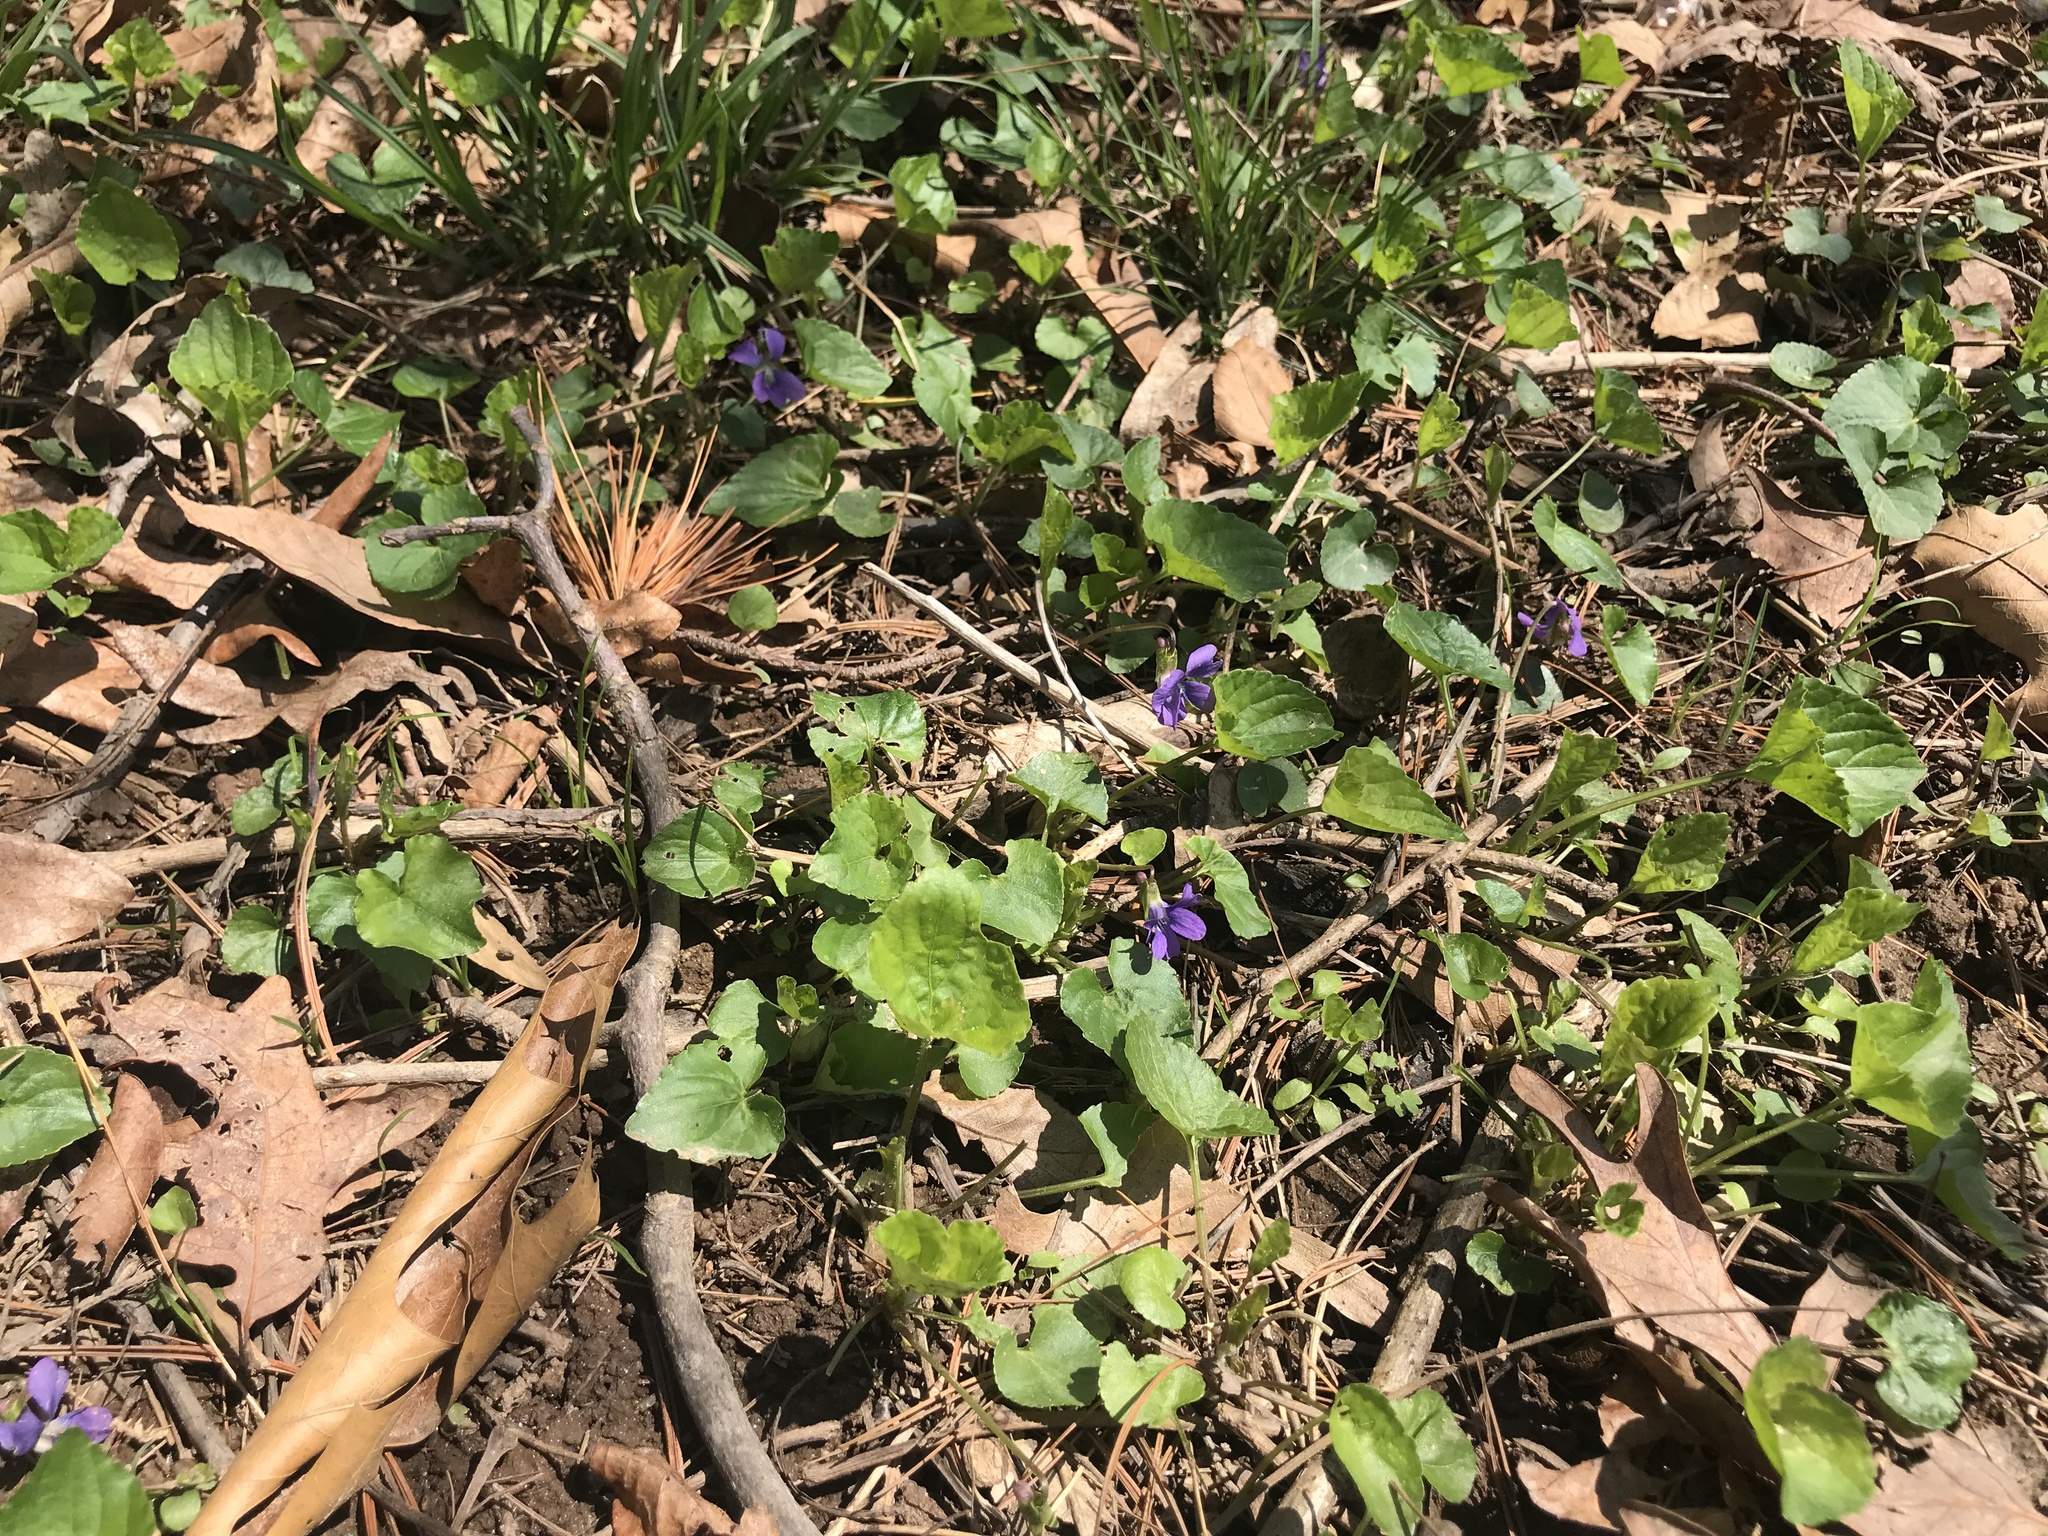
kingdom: Plantae
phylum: Tracheophyta
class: Magnoliopsida
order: Malpighiales
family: Violaceae
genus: Viola
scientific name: Viola sororia
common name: Dooryard violet
